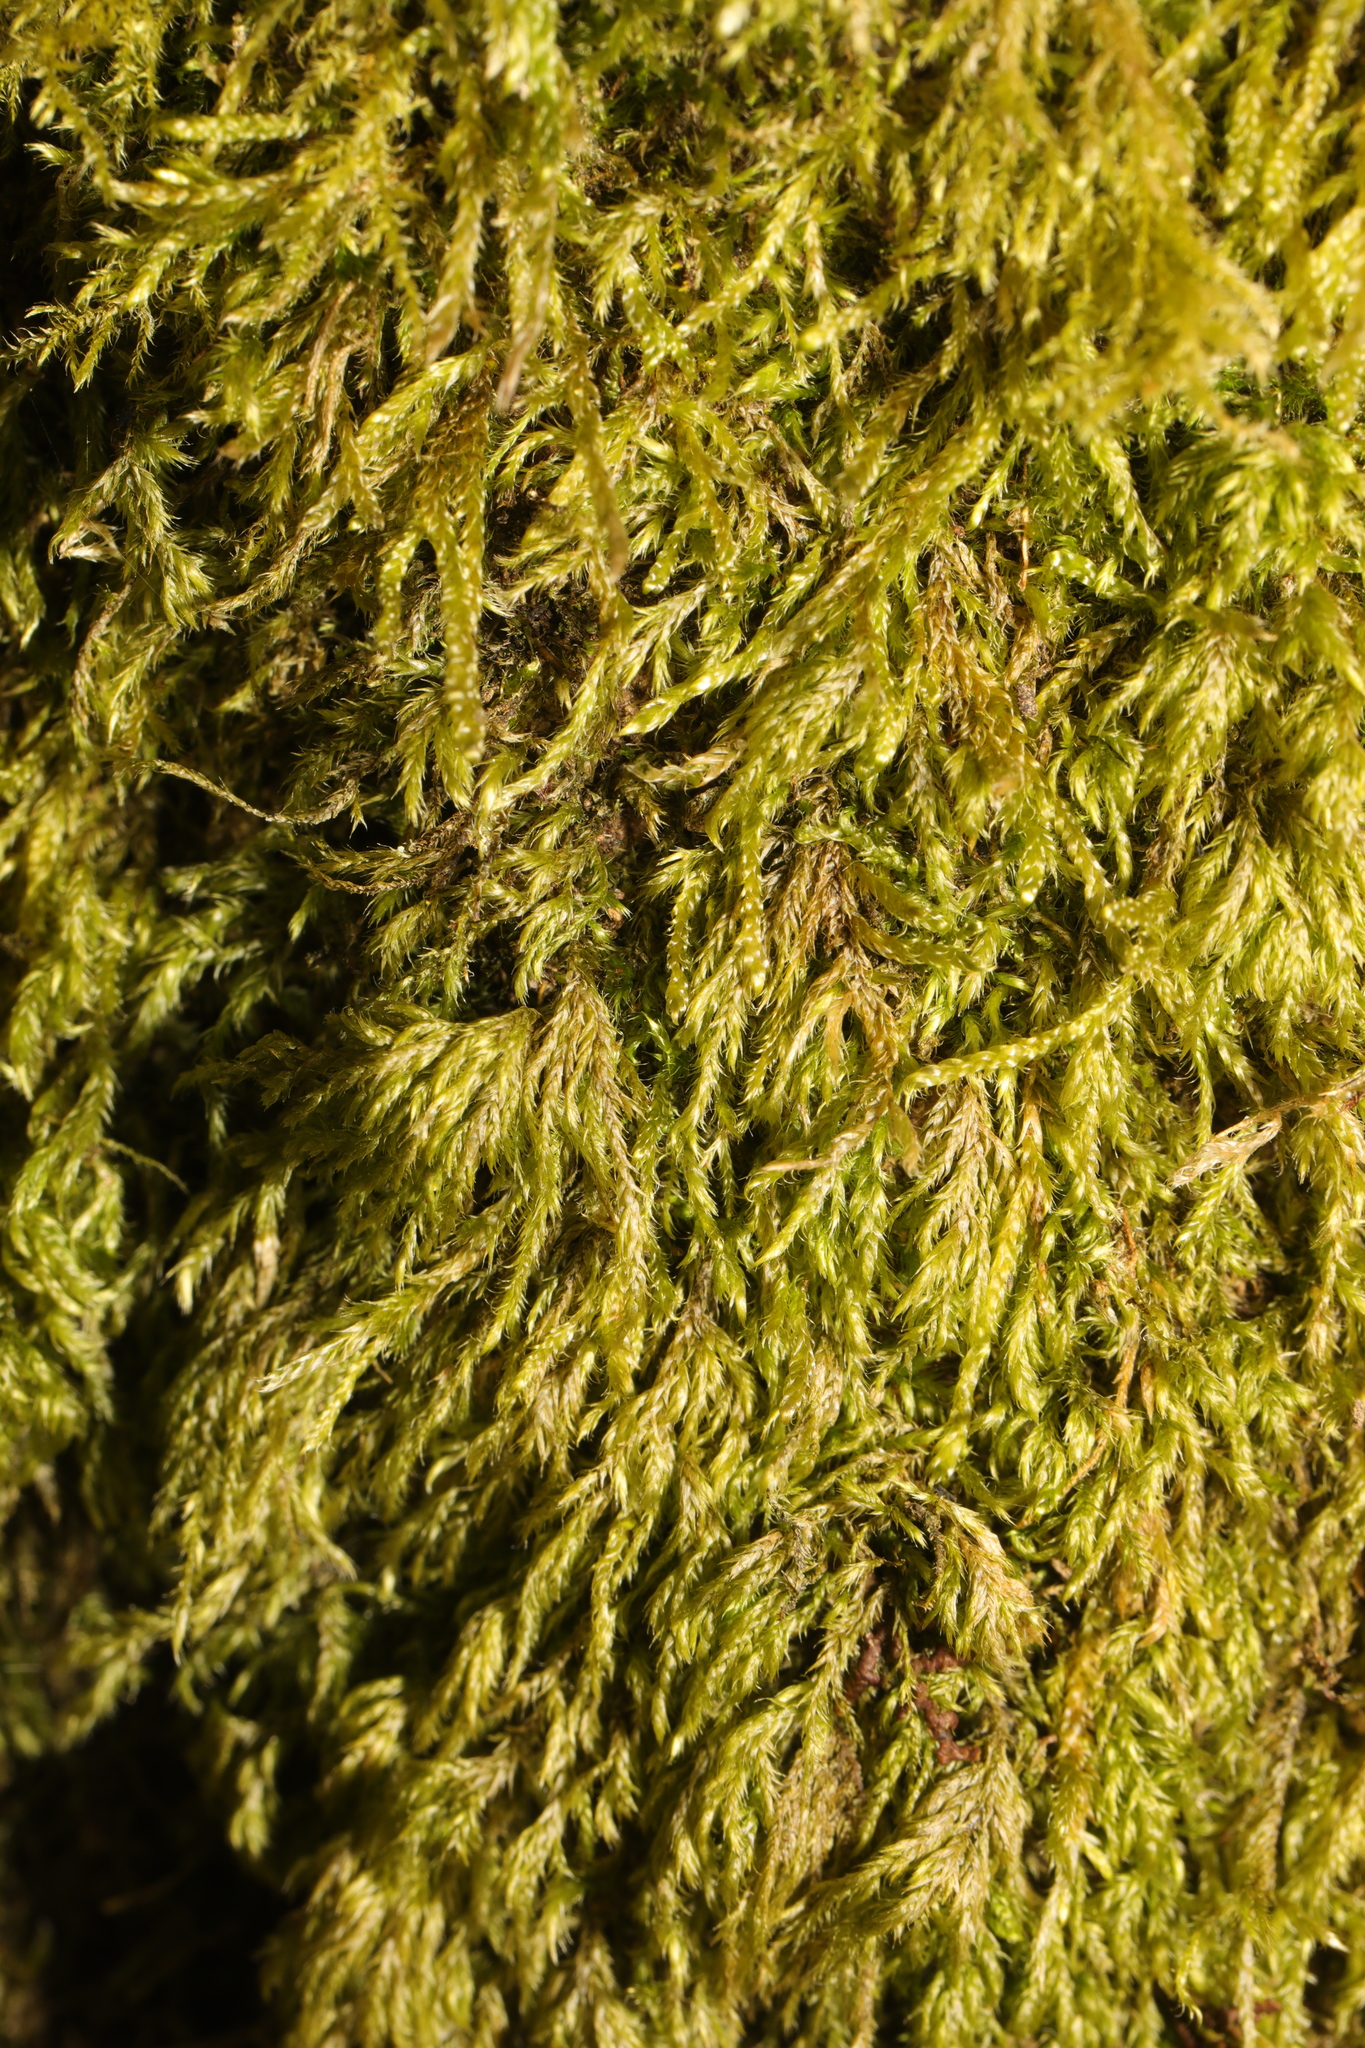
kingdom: Plantae
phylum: Bryophyta
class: Bryopsida
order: Hypnales
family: Hypnaceae
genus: Hypnum
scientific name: Hypnum cupressiforme
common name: Cypress-leaved plait-moss
